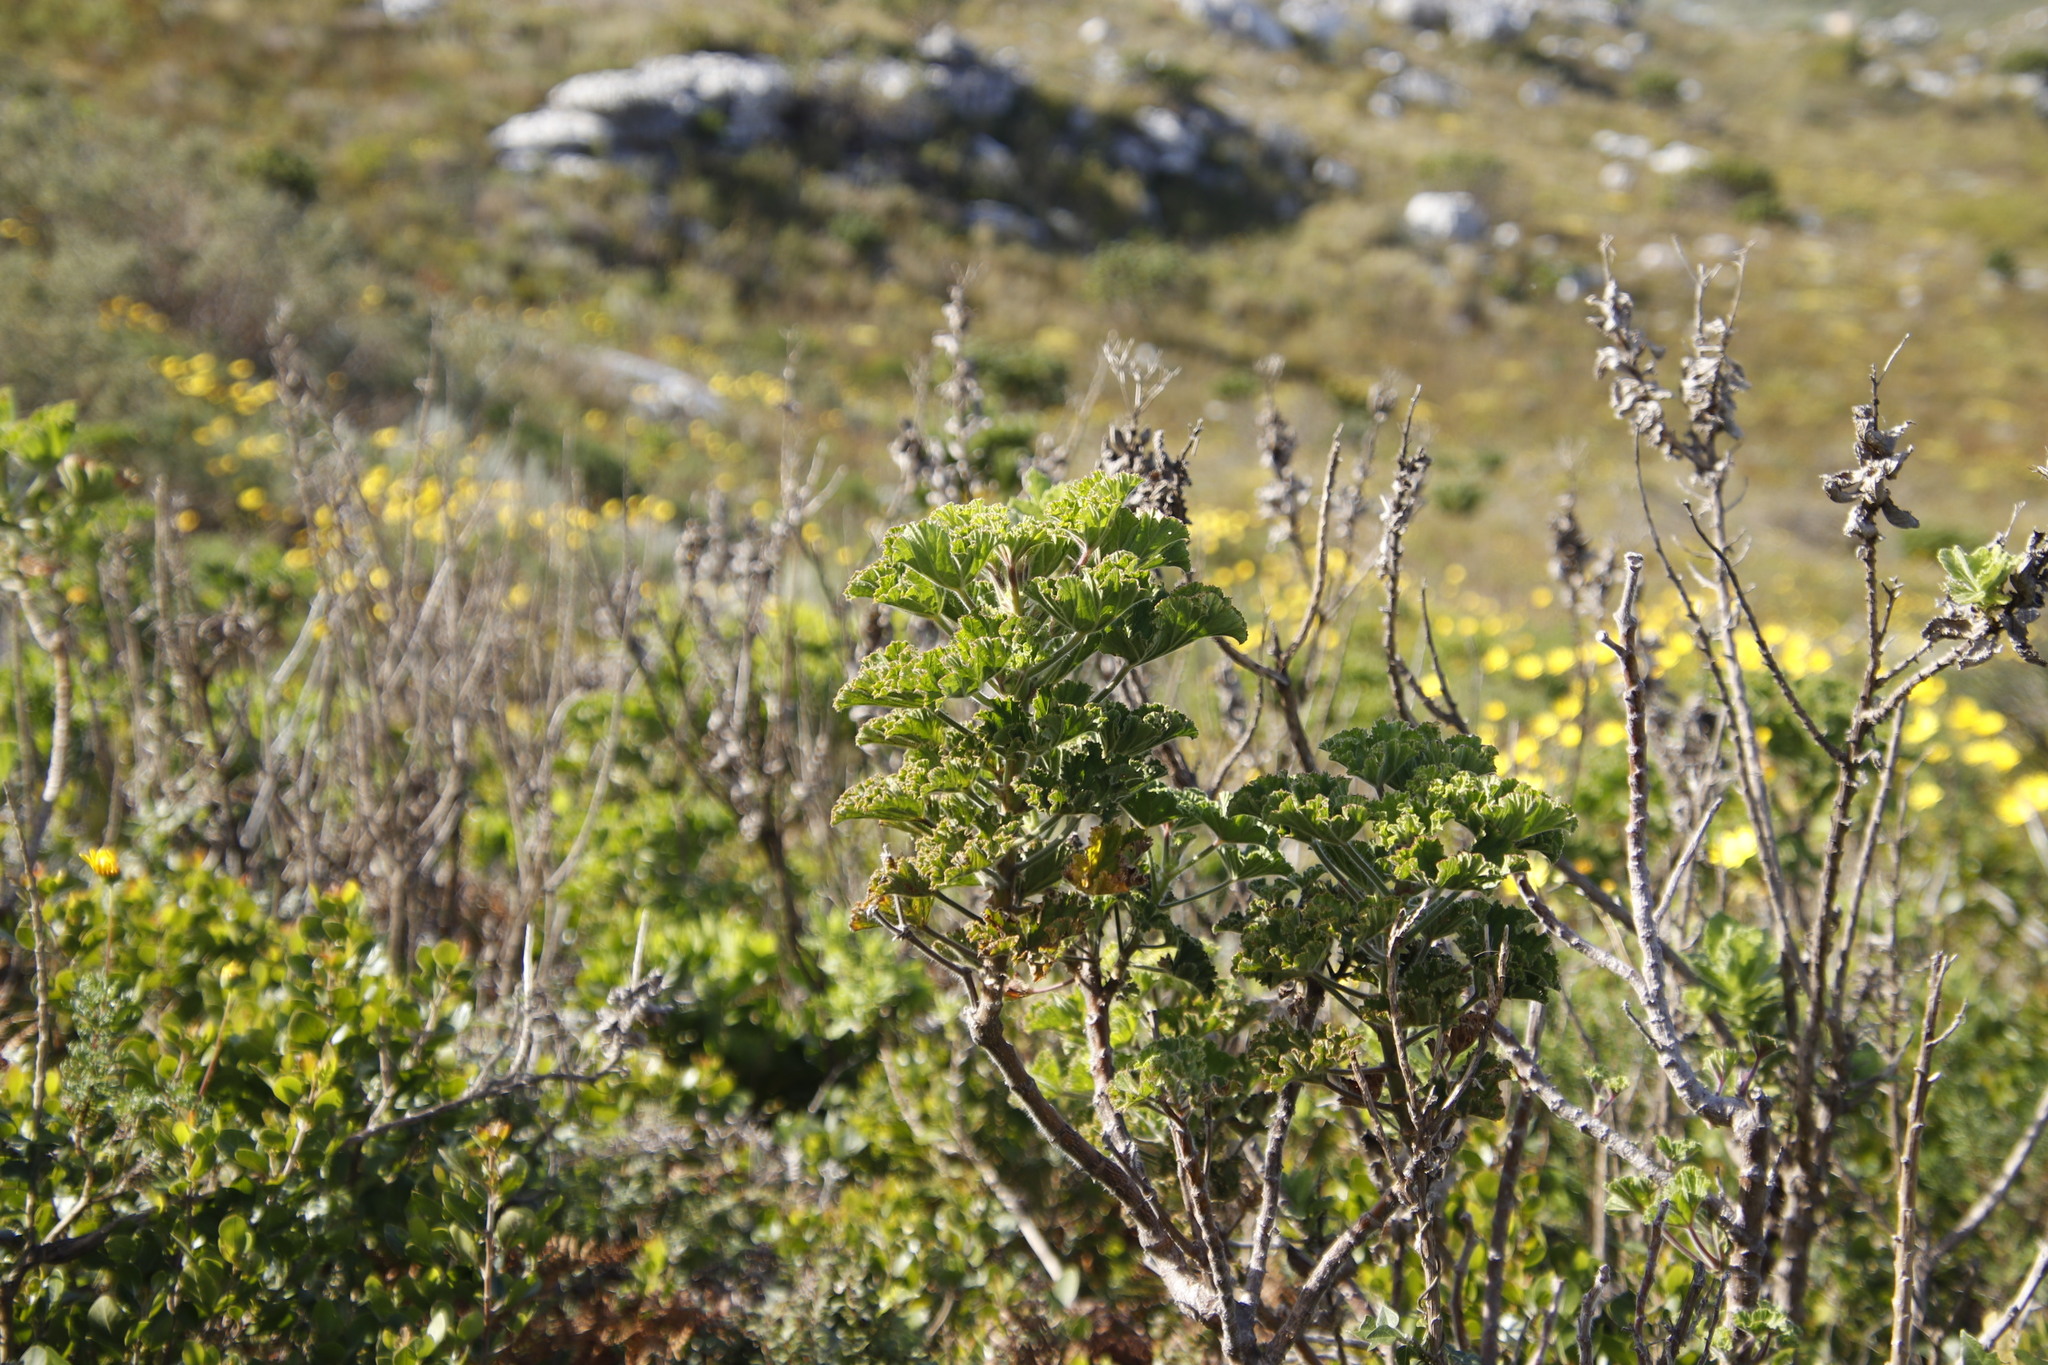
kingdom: Plantae
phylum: Tracheophyta
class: Magnoliopsida
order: Geraniales
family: Geraniaceae
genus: Pelargonium
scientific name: Pelargonium cucullatum
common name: Tree pelargonium
